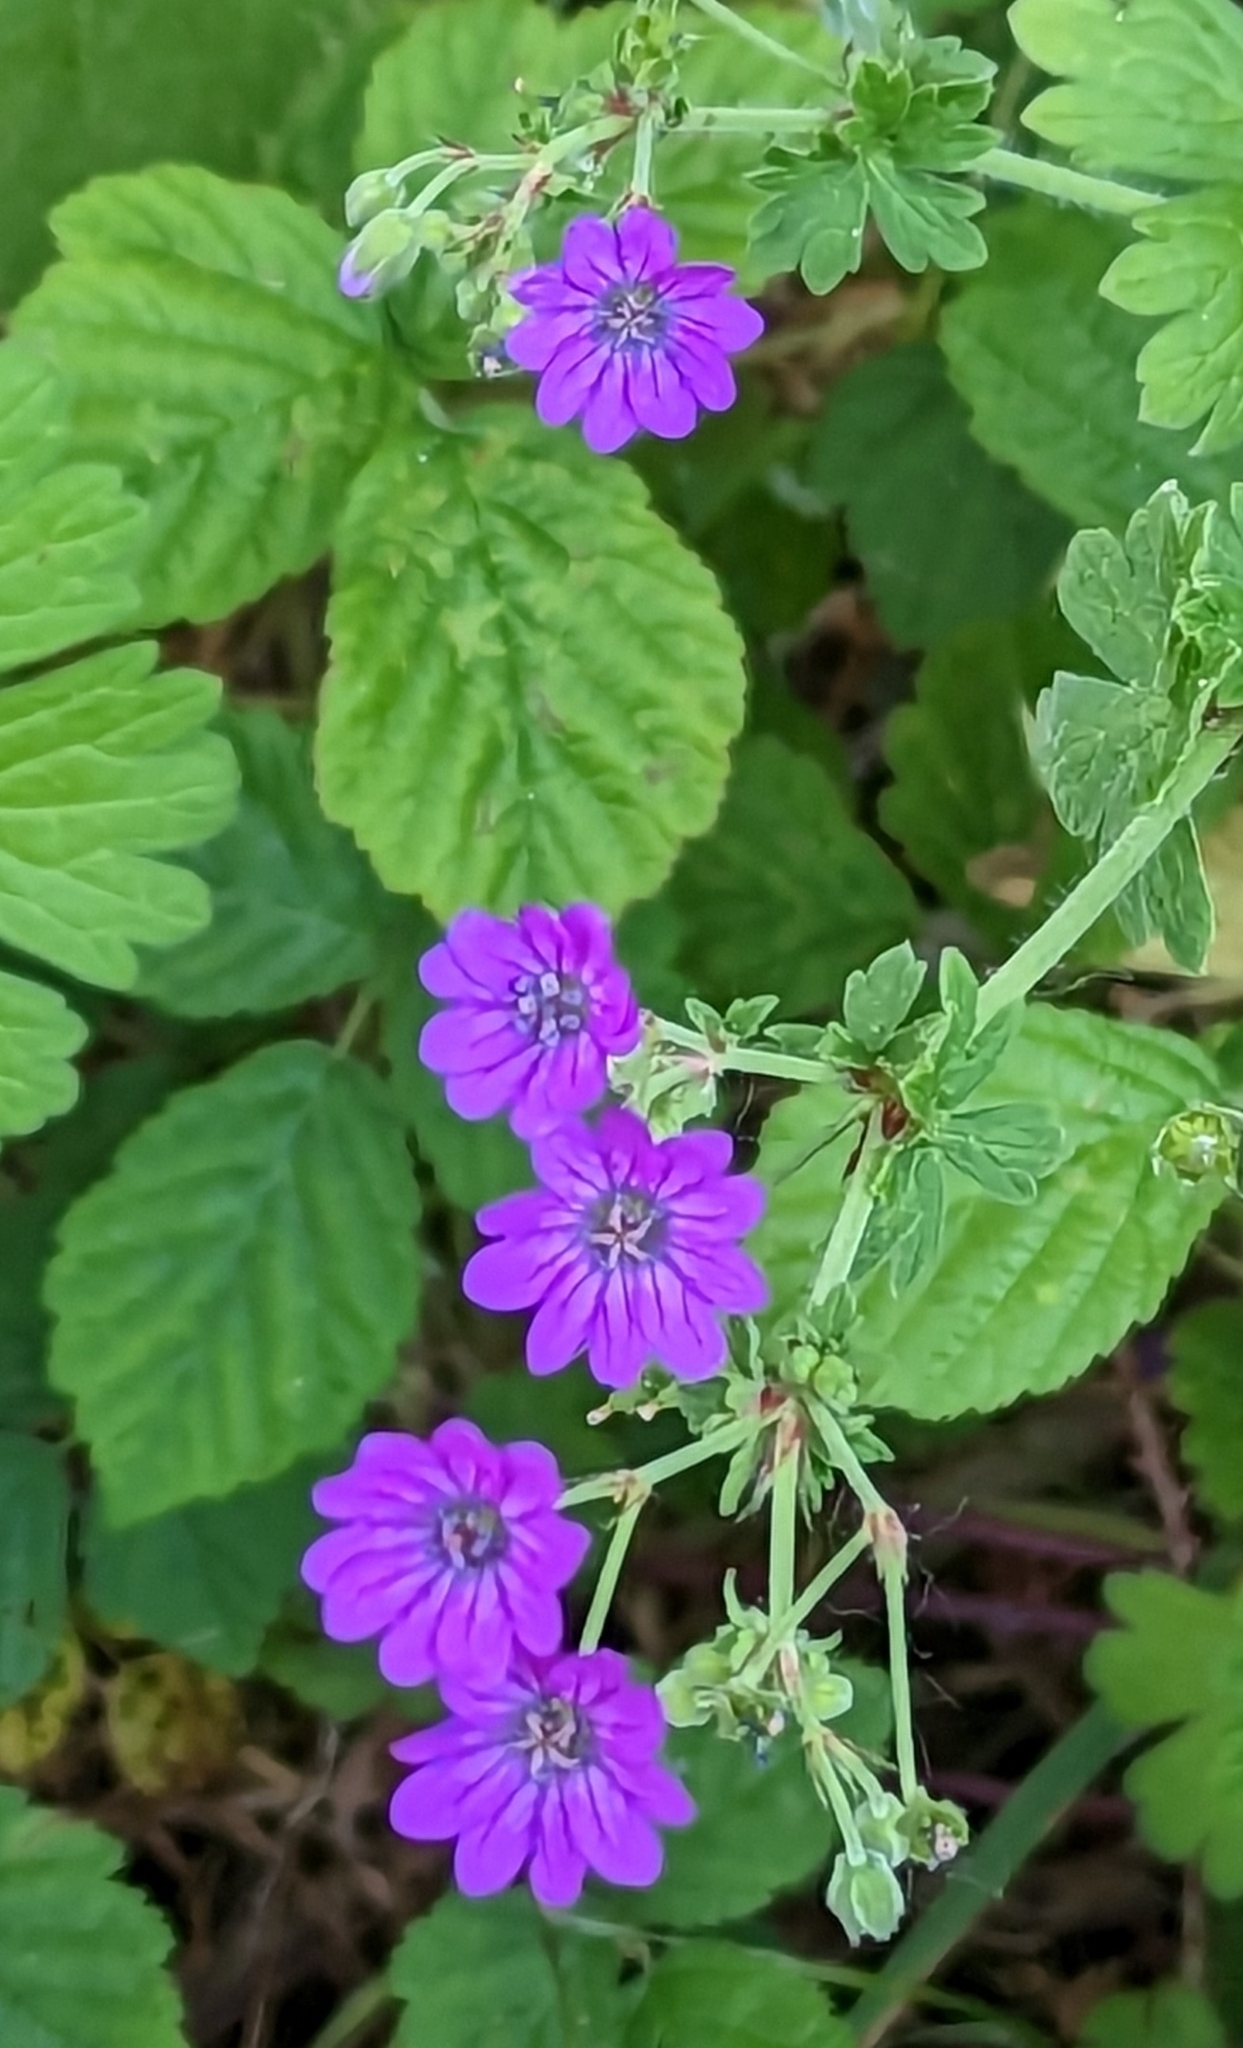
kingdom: Plantae
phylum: Tracheophyta
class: Magnoliopsida
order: Geraniales
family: Geraniaceae
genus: Geranium
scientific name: Geranium pyrenaicum
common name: Hedgerow crane's-bill
